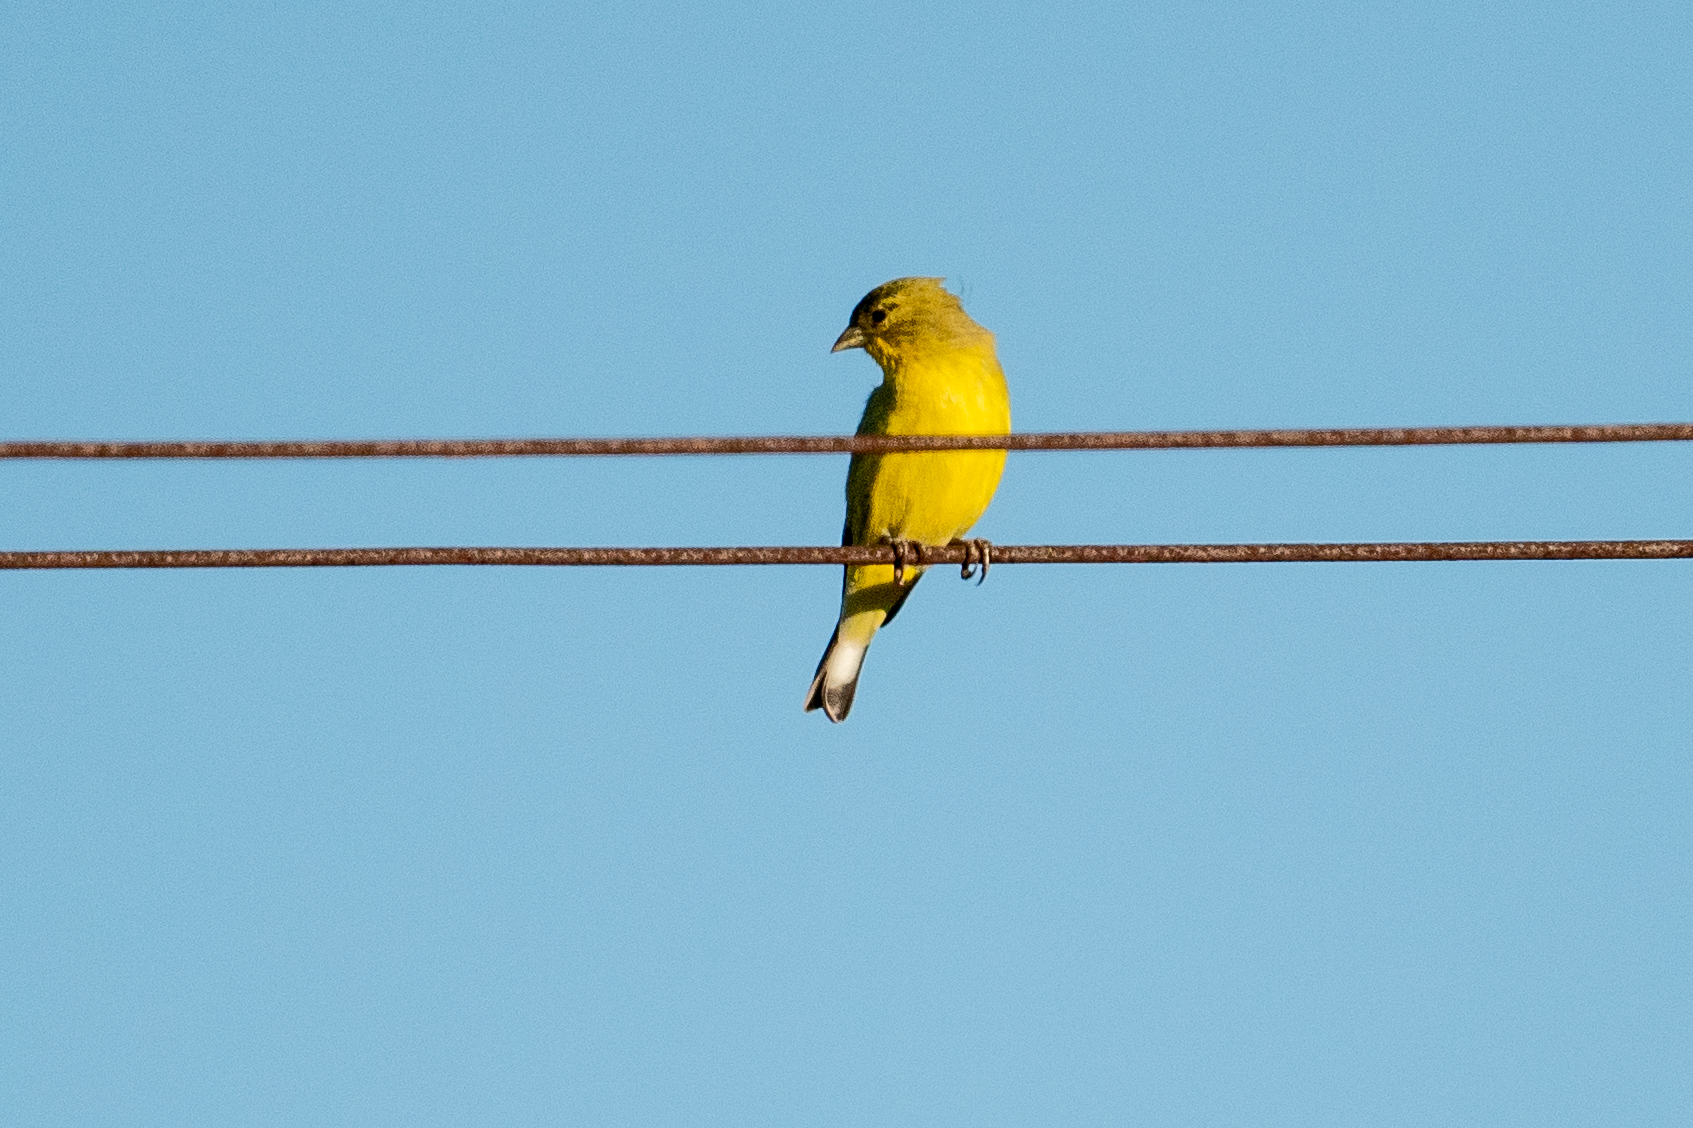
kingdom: Animalia
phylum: Chordata
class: Aves
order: Passeriformes
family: Fringillidae
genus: Spinus
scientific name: Spinus psaltria
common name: Lesser goldfinch
